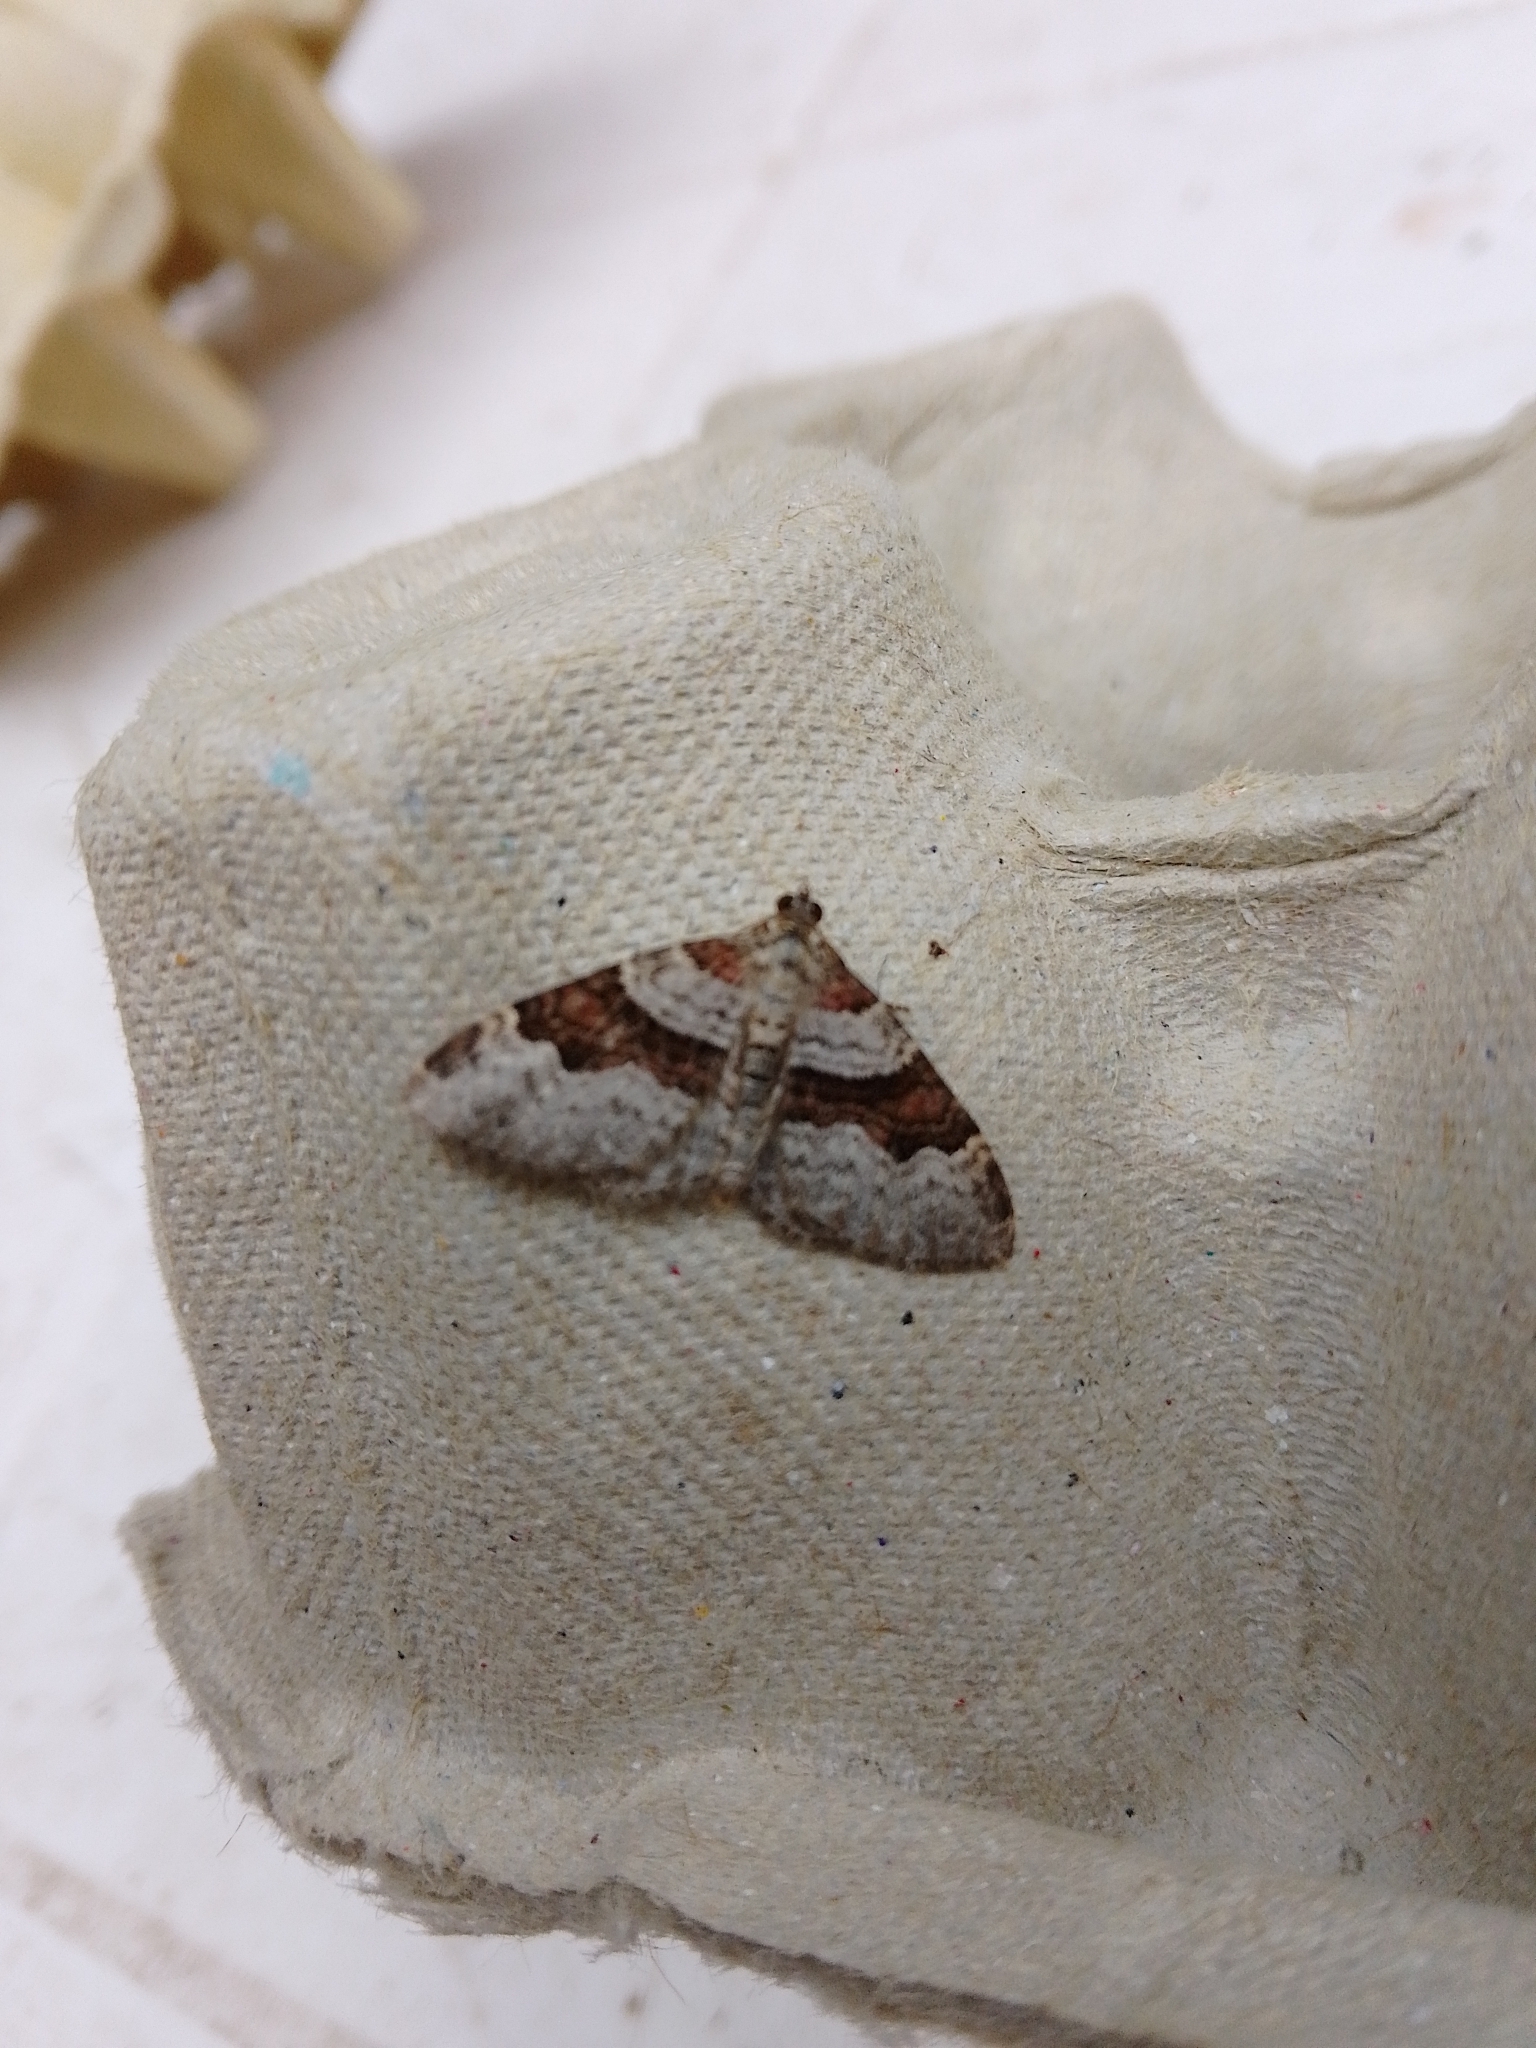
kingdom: Animalia
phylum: Arthropoda
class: Insecta
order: Lepidoptera
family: Geometridae
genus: Xanthorhoe
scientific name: Xanthorhoe designata
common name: Flame carpet
